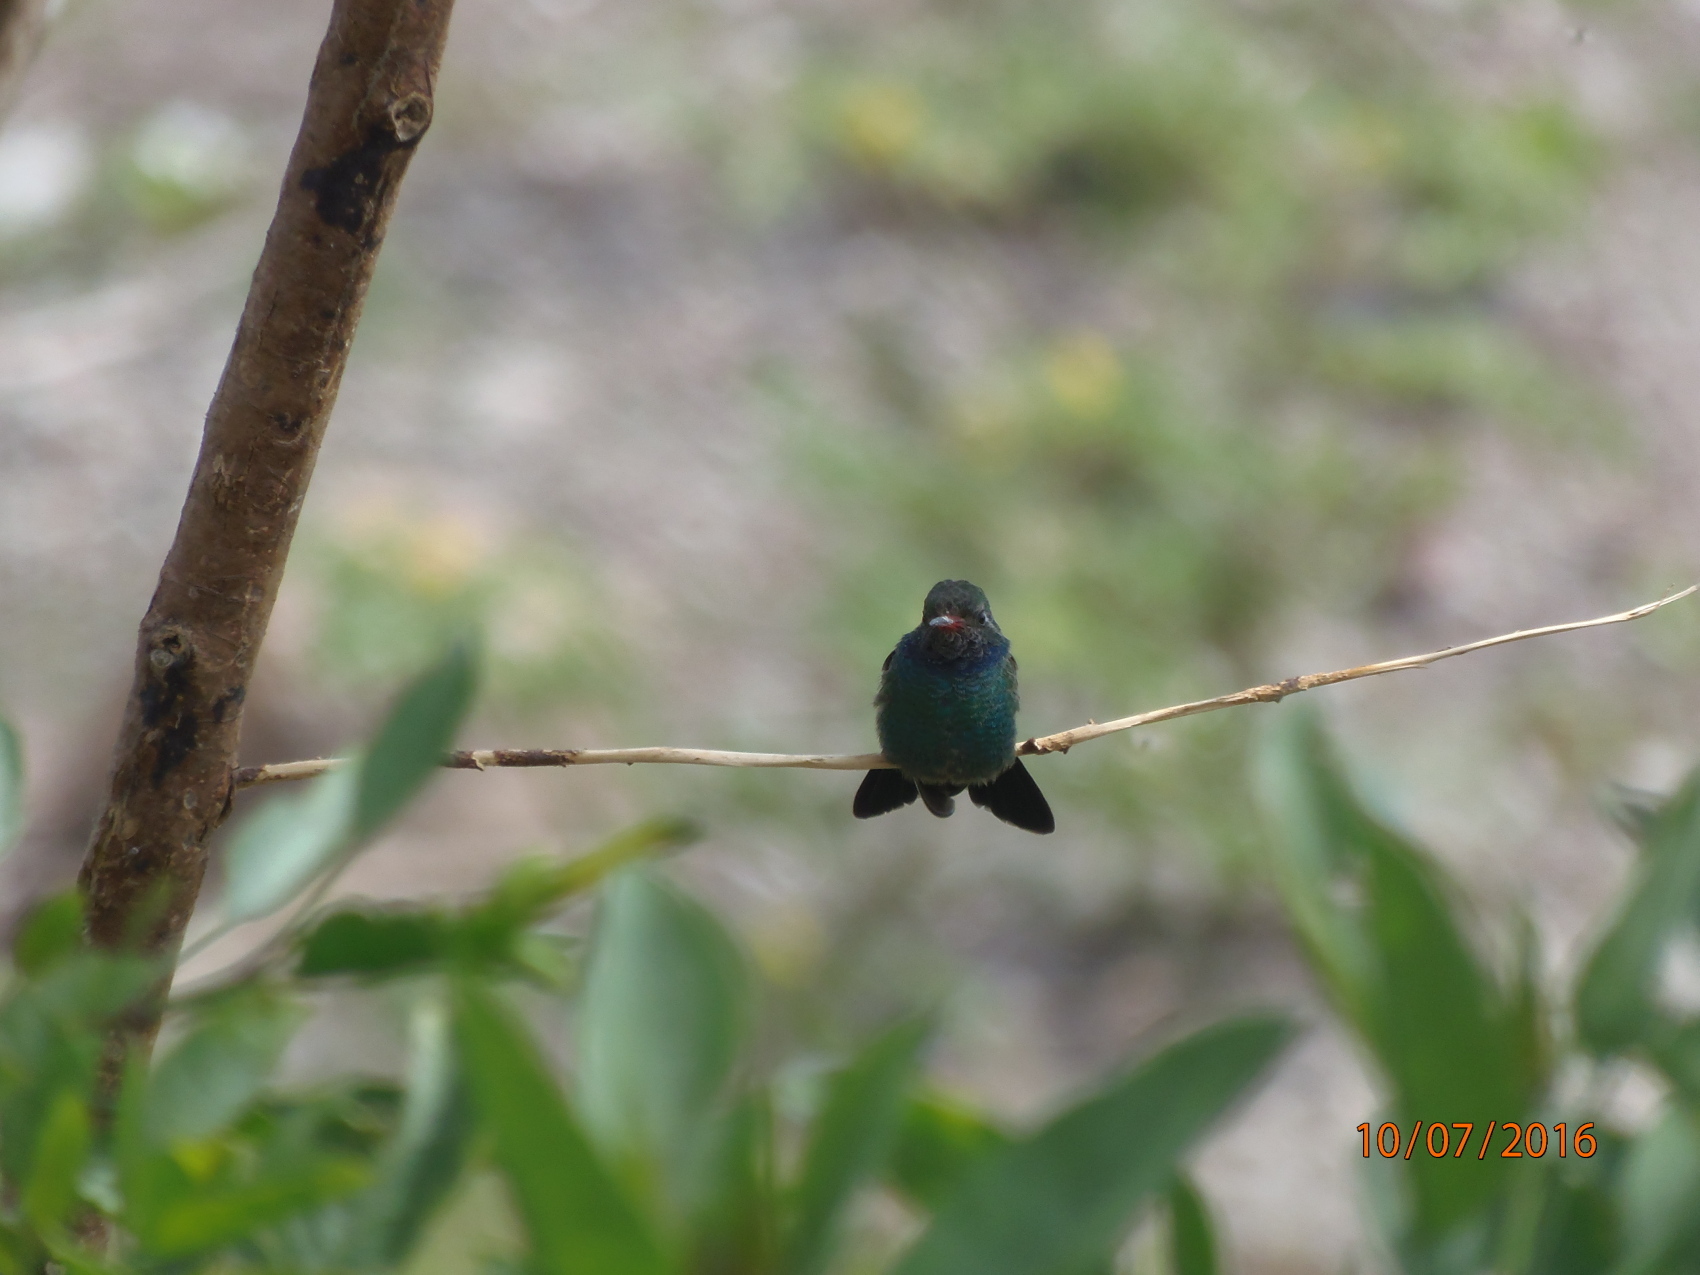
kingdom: Animalia
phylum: Chordata
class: Aves
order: Apodiformes
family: Trochilidae
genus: Cynanthus
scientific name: Cynanthus latirostris
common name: Broad-billed hummingbird
